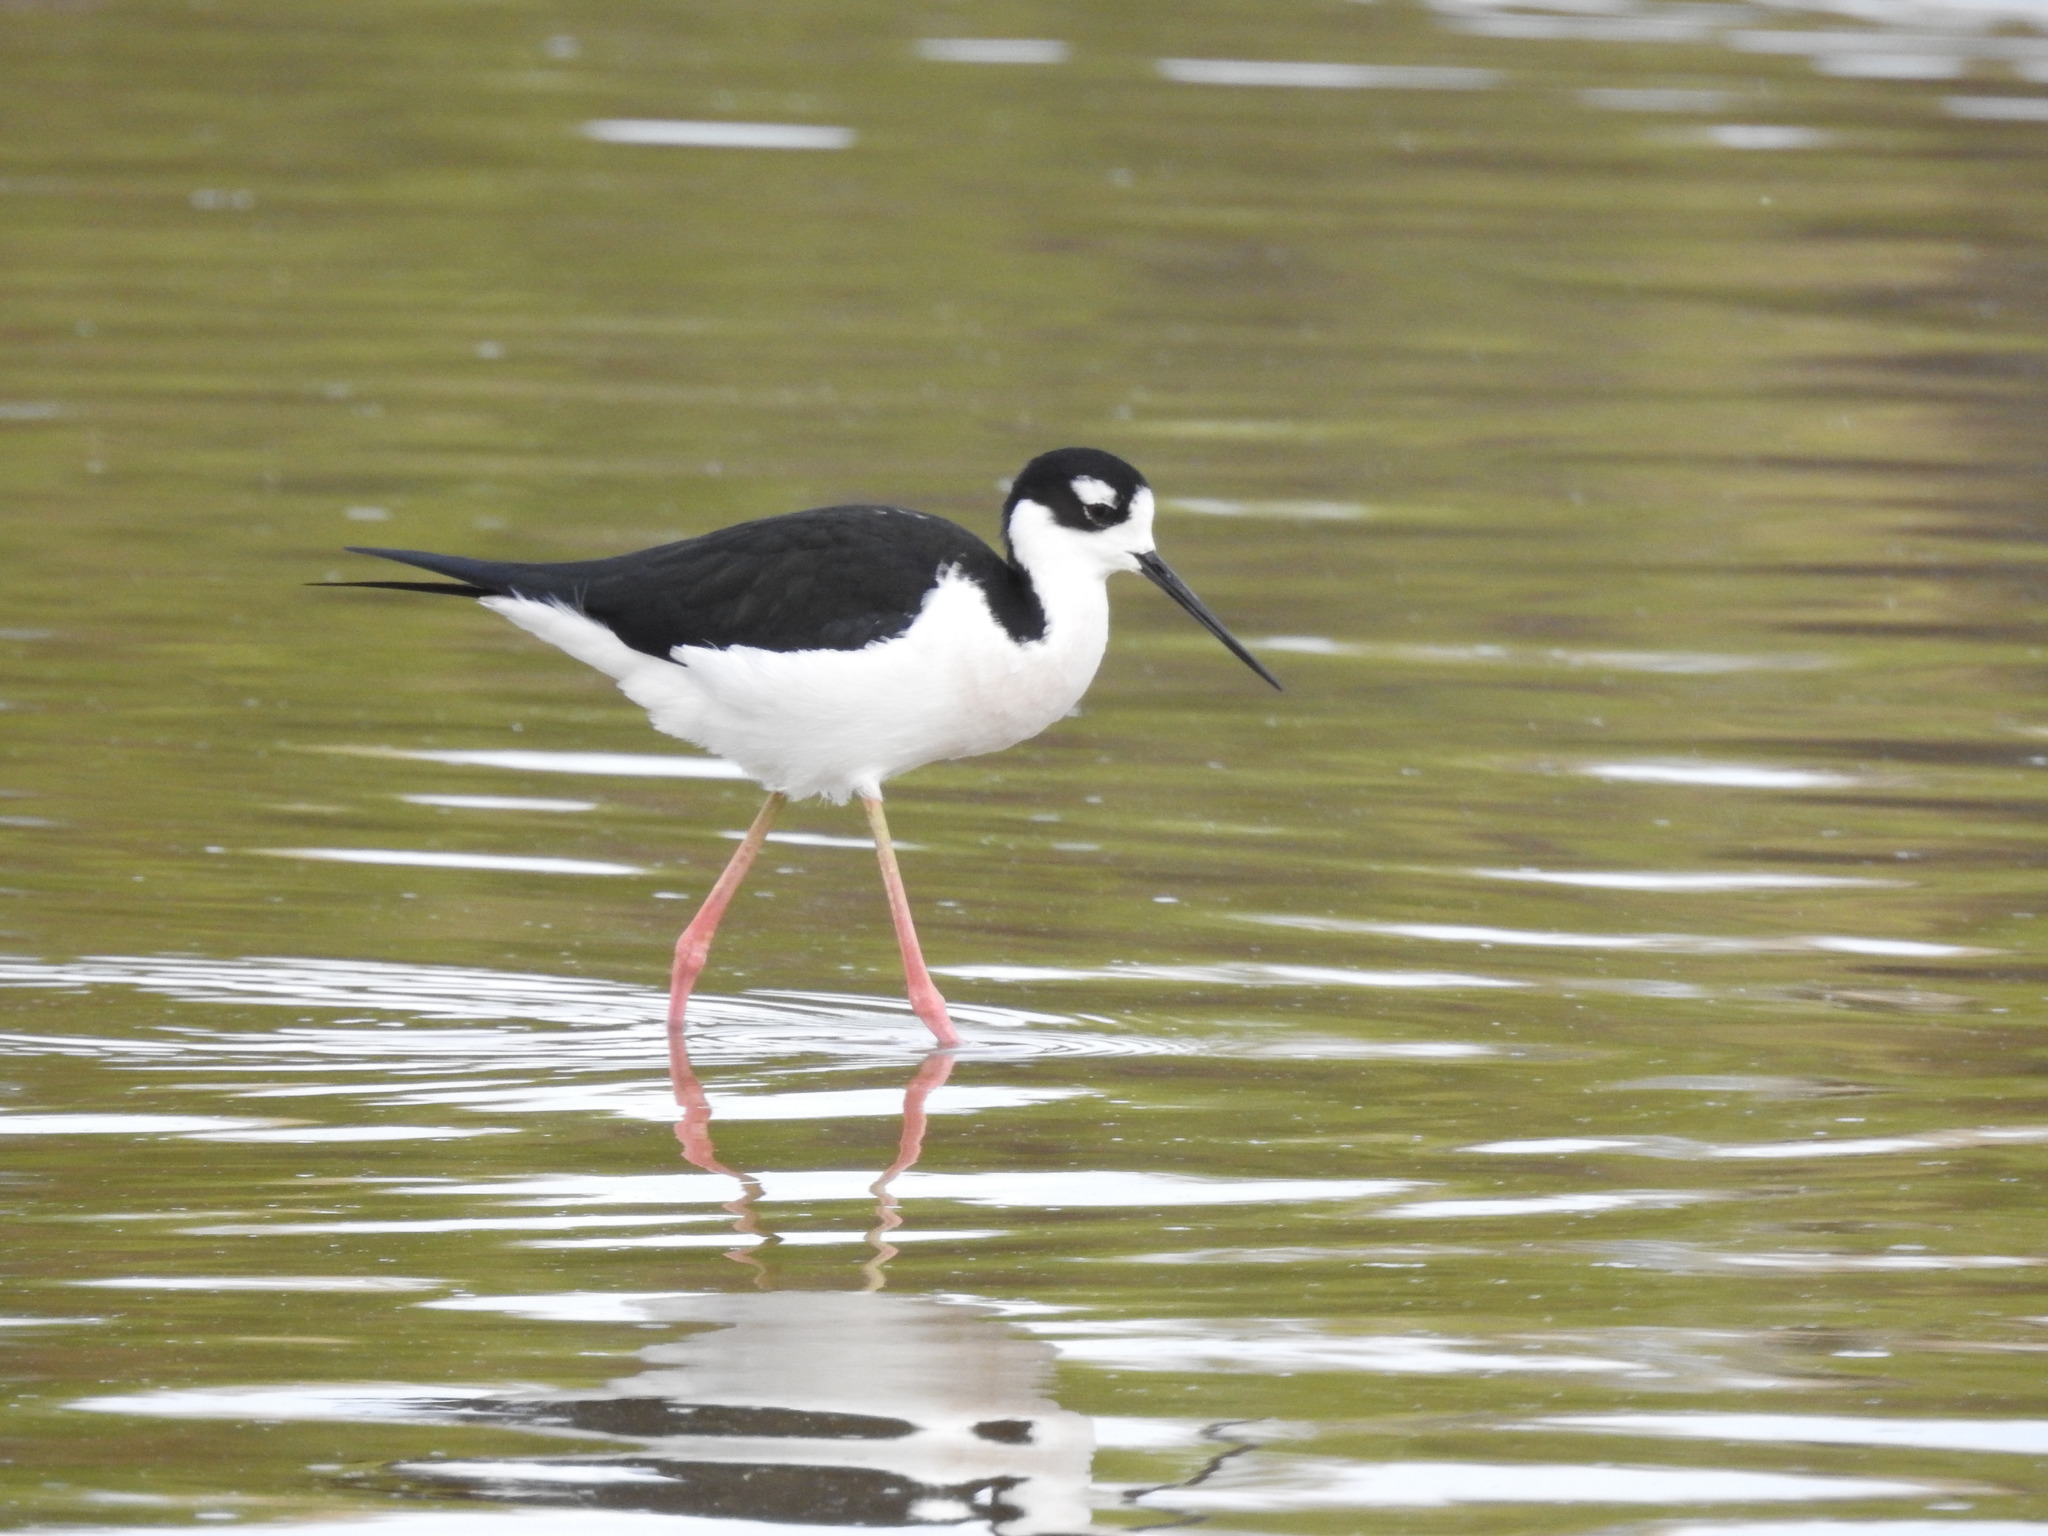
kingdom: Animalia
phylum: Chordata
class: Aves
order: Charadriiformes
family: Recurvirostridae
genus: Himantopus
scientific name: Himantopus mexicanus
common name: Black-necked stilt
